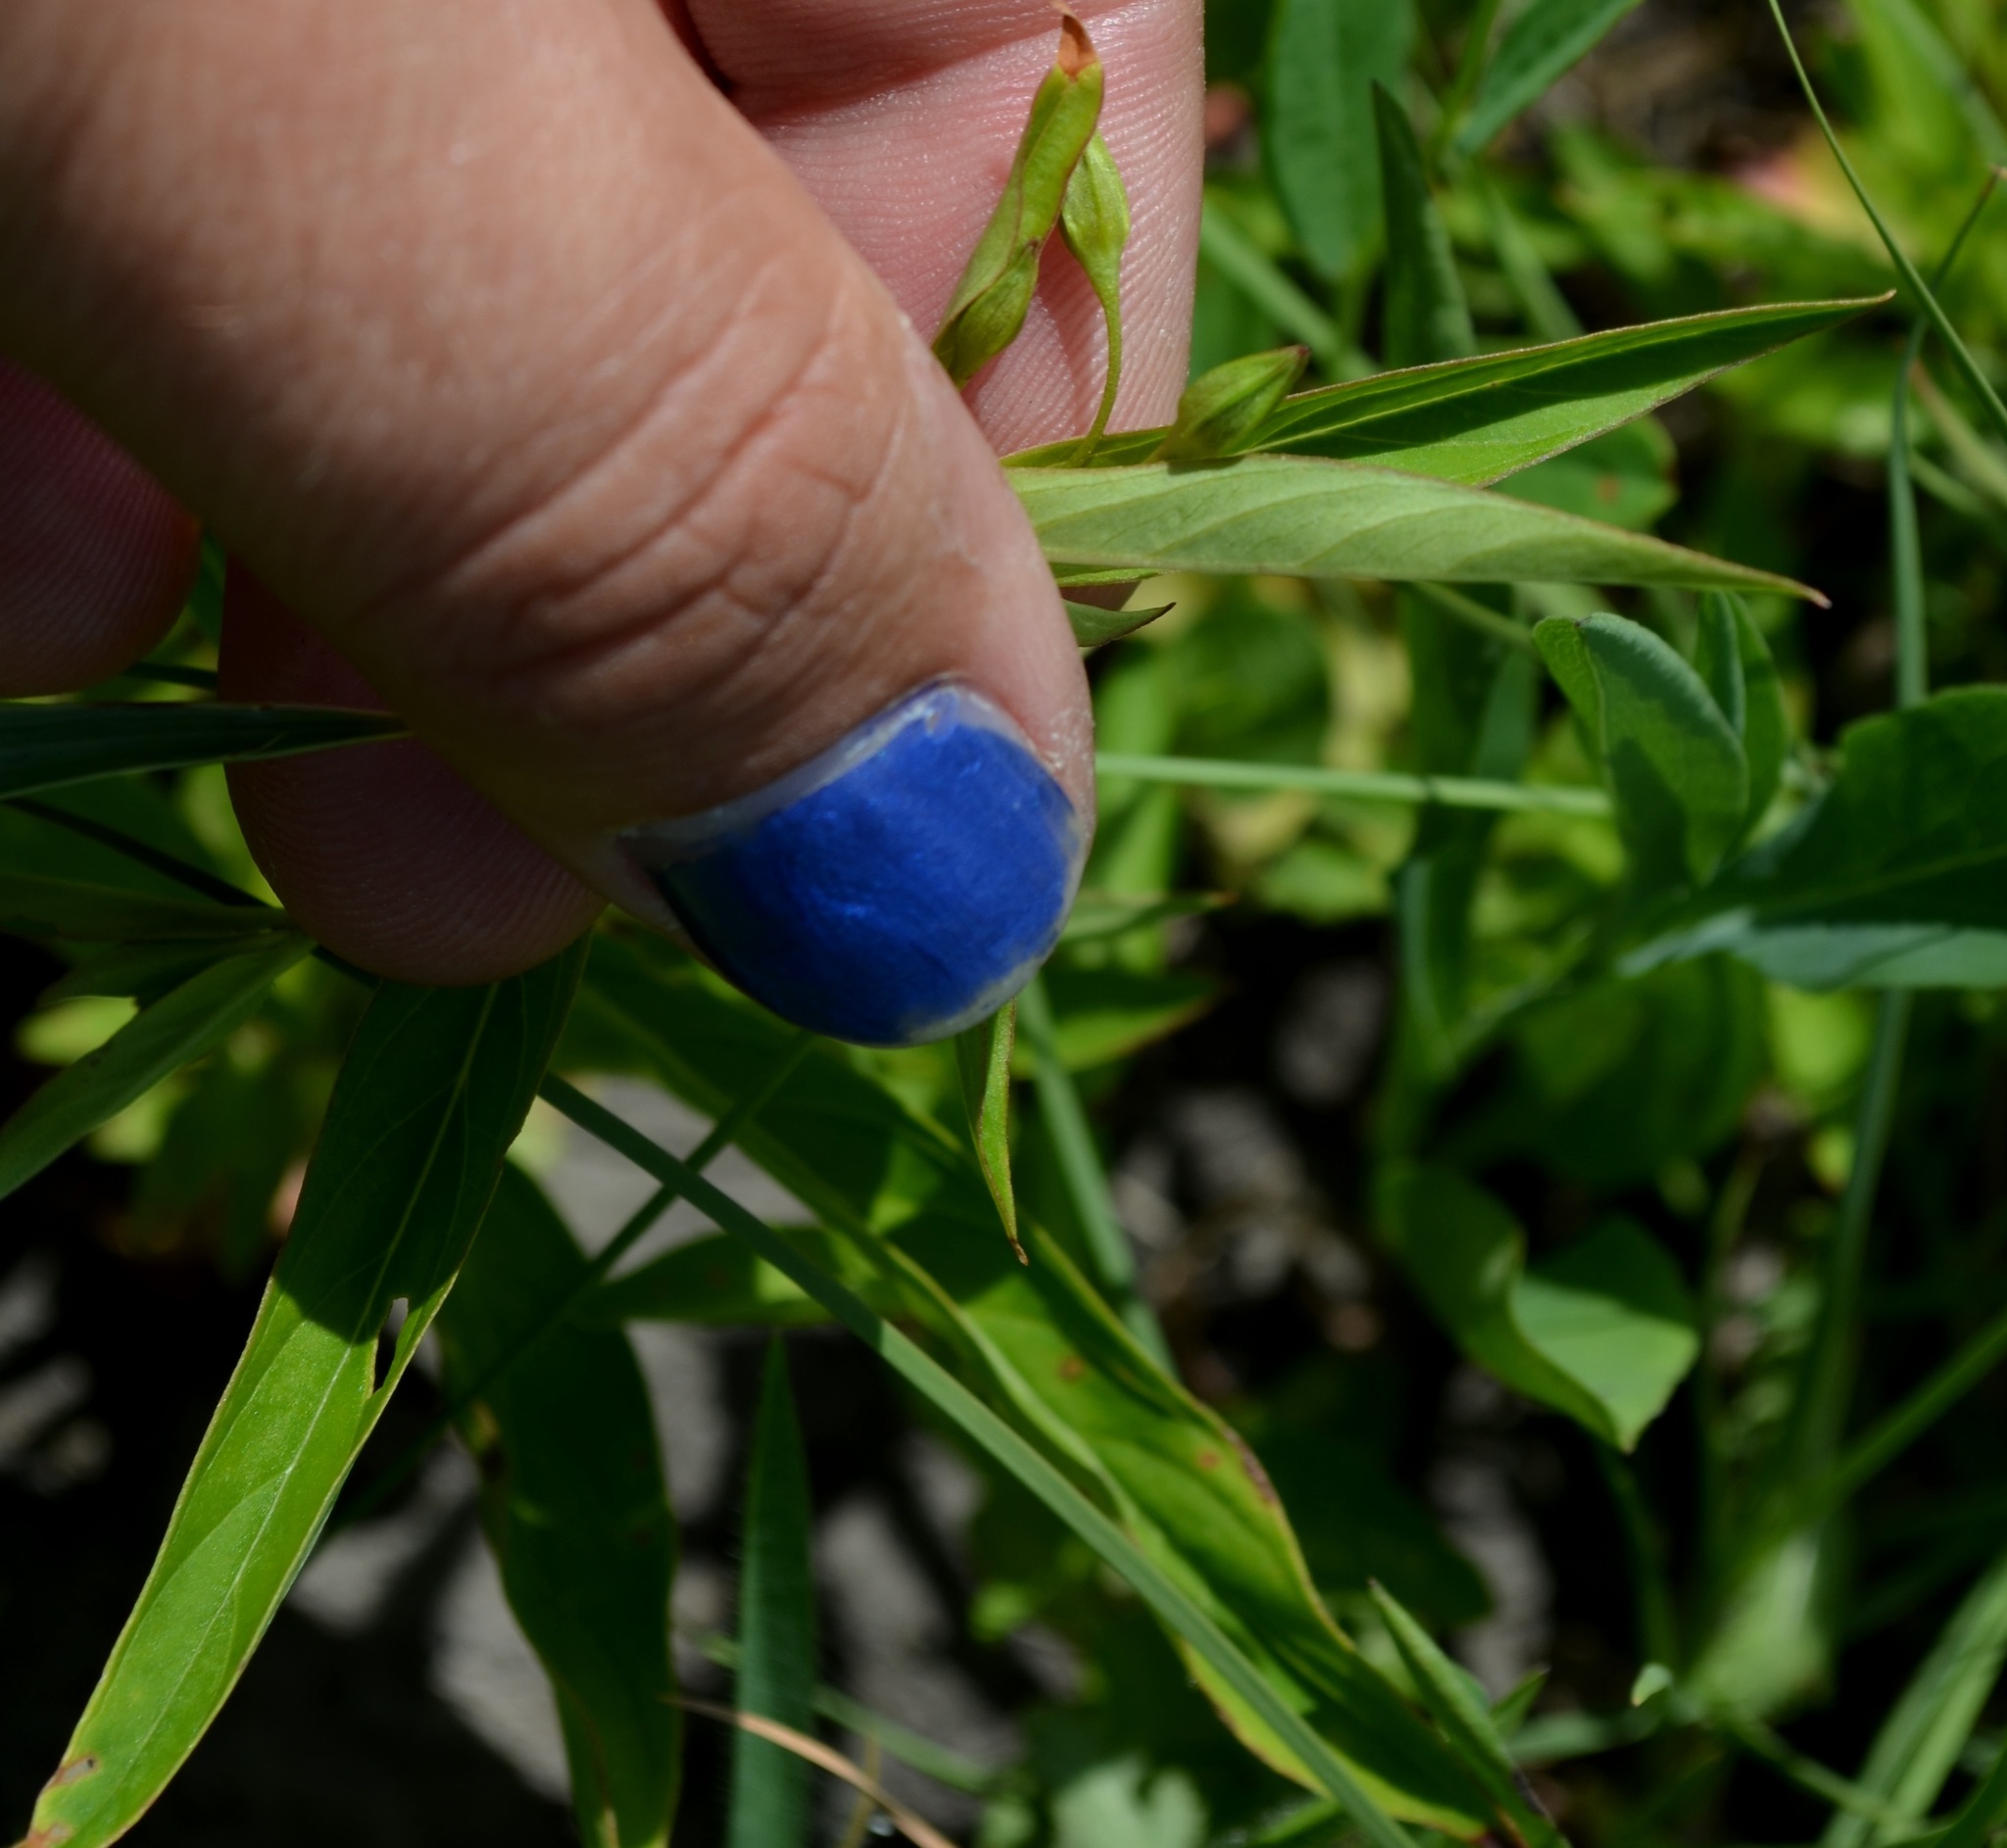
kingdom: Plantae
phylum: Tracheophyta
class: Magnoliopsida
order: Ericales
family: Primulaceae
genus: Lysimachia
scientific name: Lysimachia ciliata
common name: Fringed loosestrife
